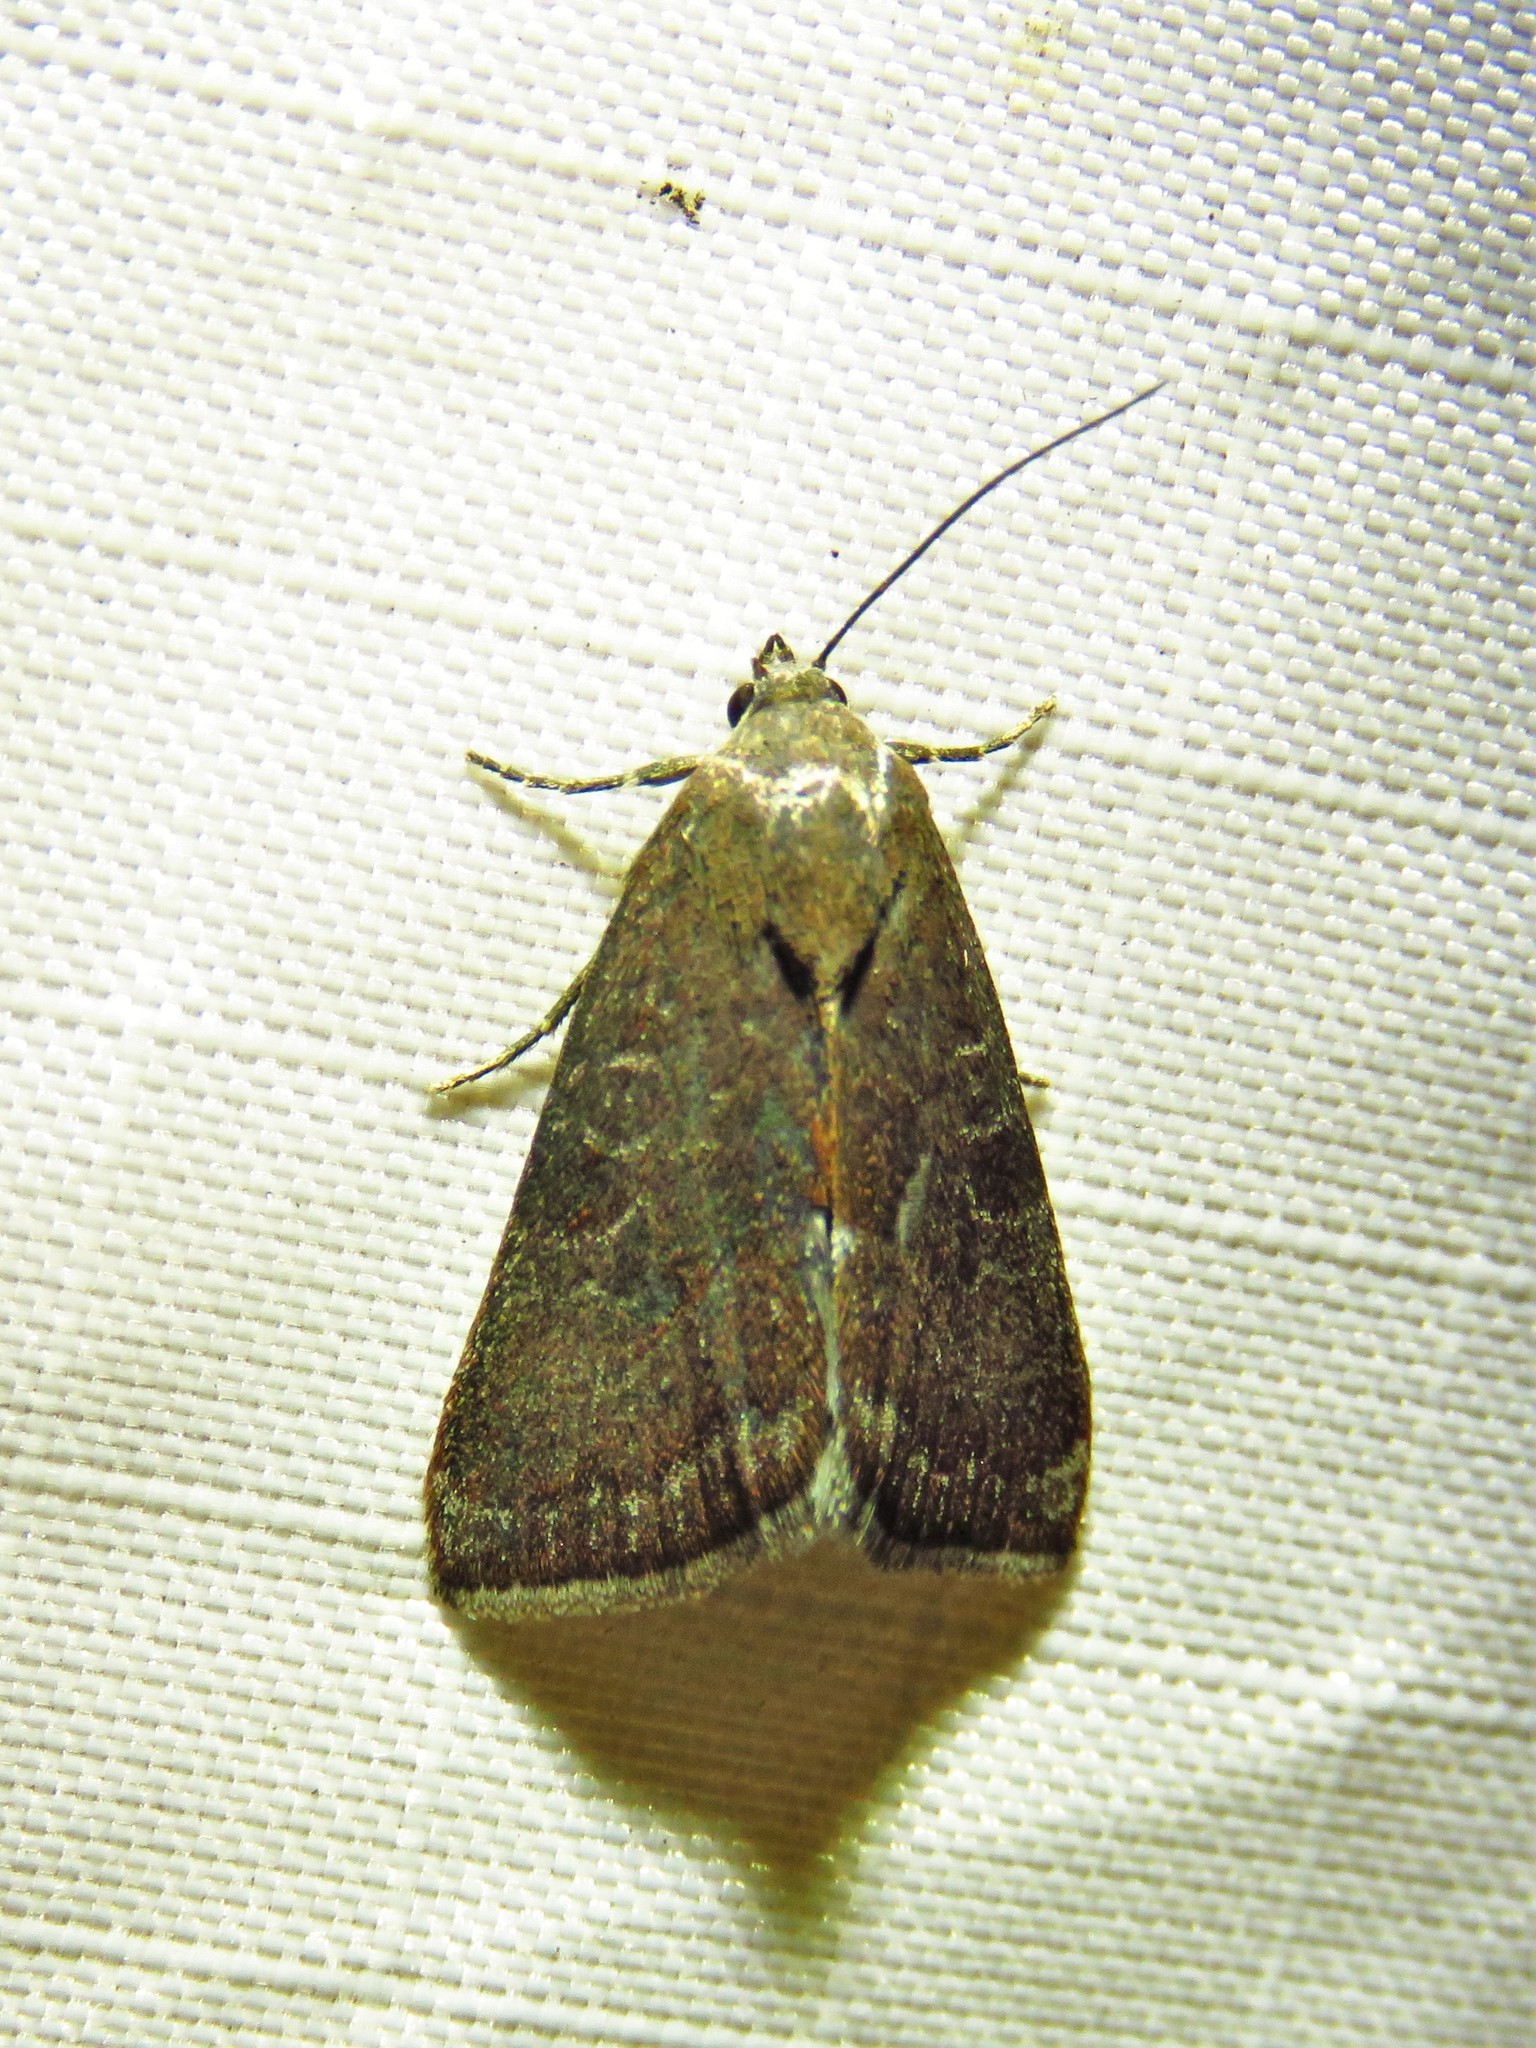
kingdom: Animalia
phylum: Arthropoda
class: Insecta
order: Lepidoptera
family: Noctuidae
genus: Galgula
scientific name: Galgula partita
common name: Wedgeling
